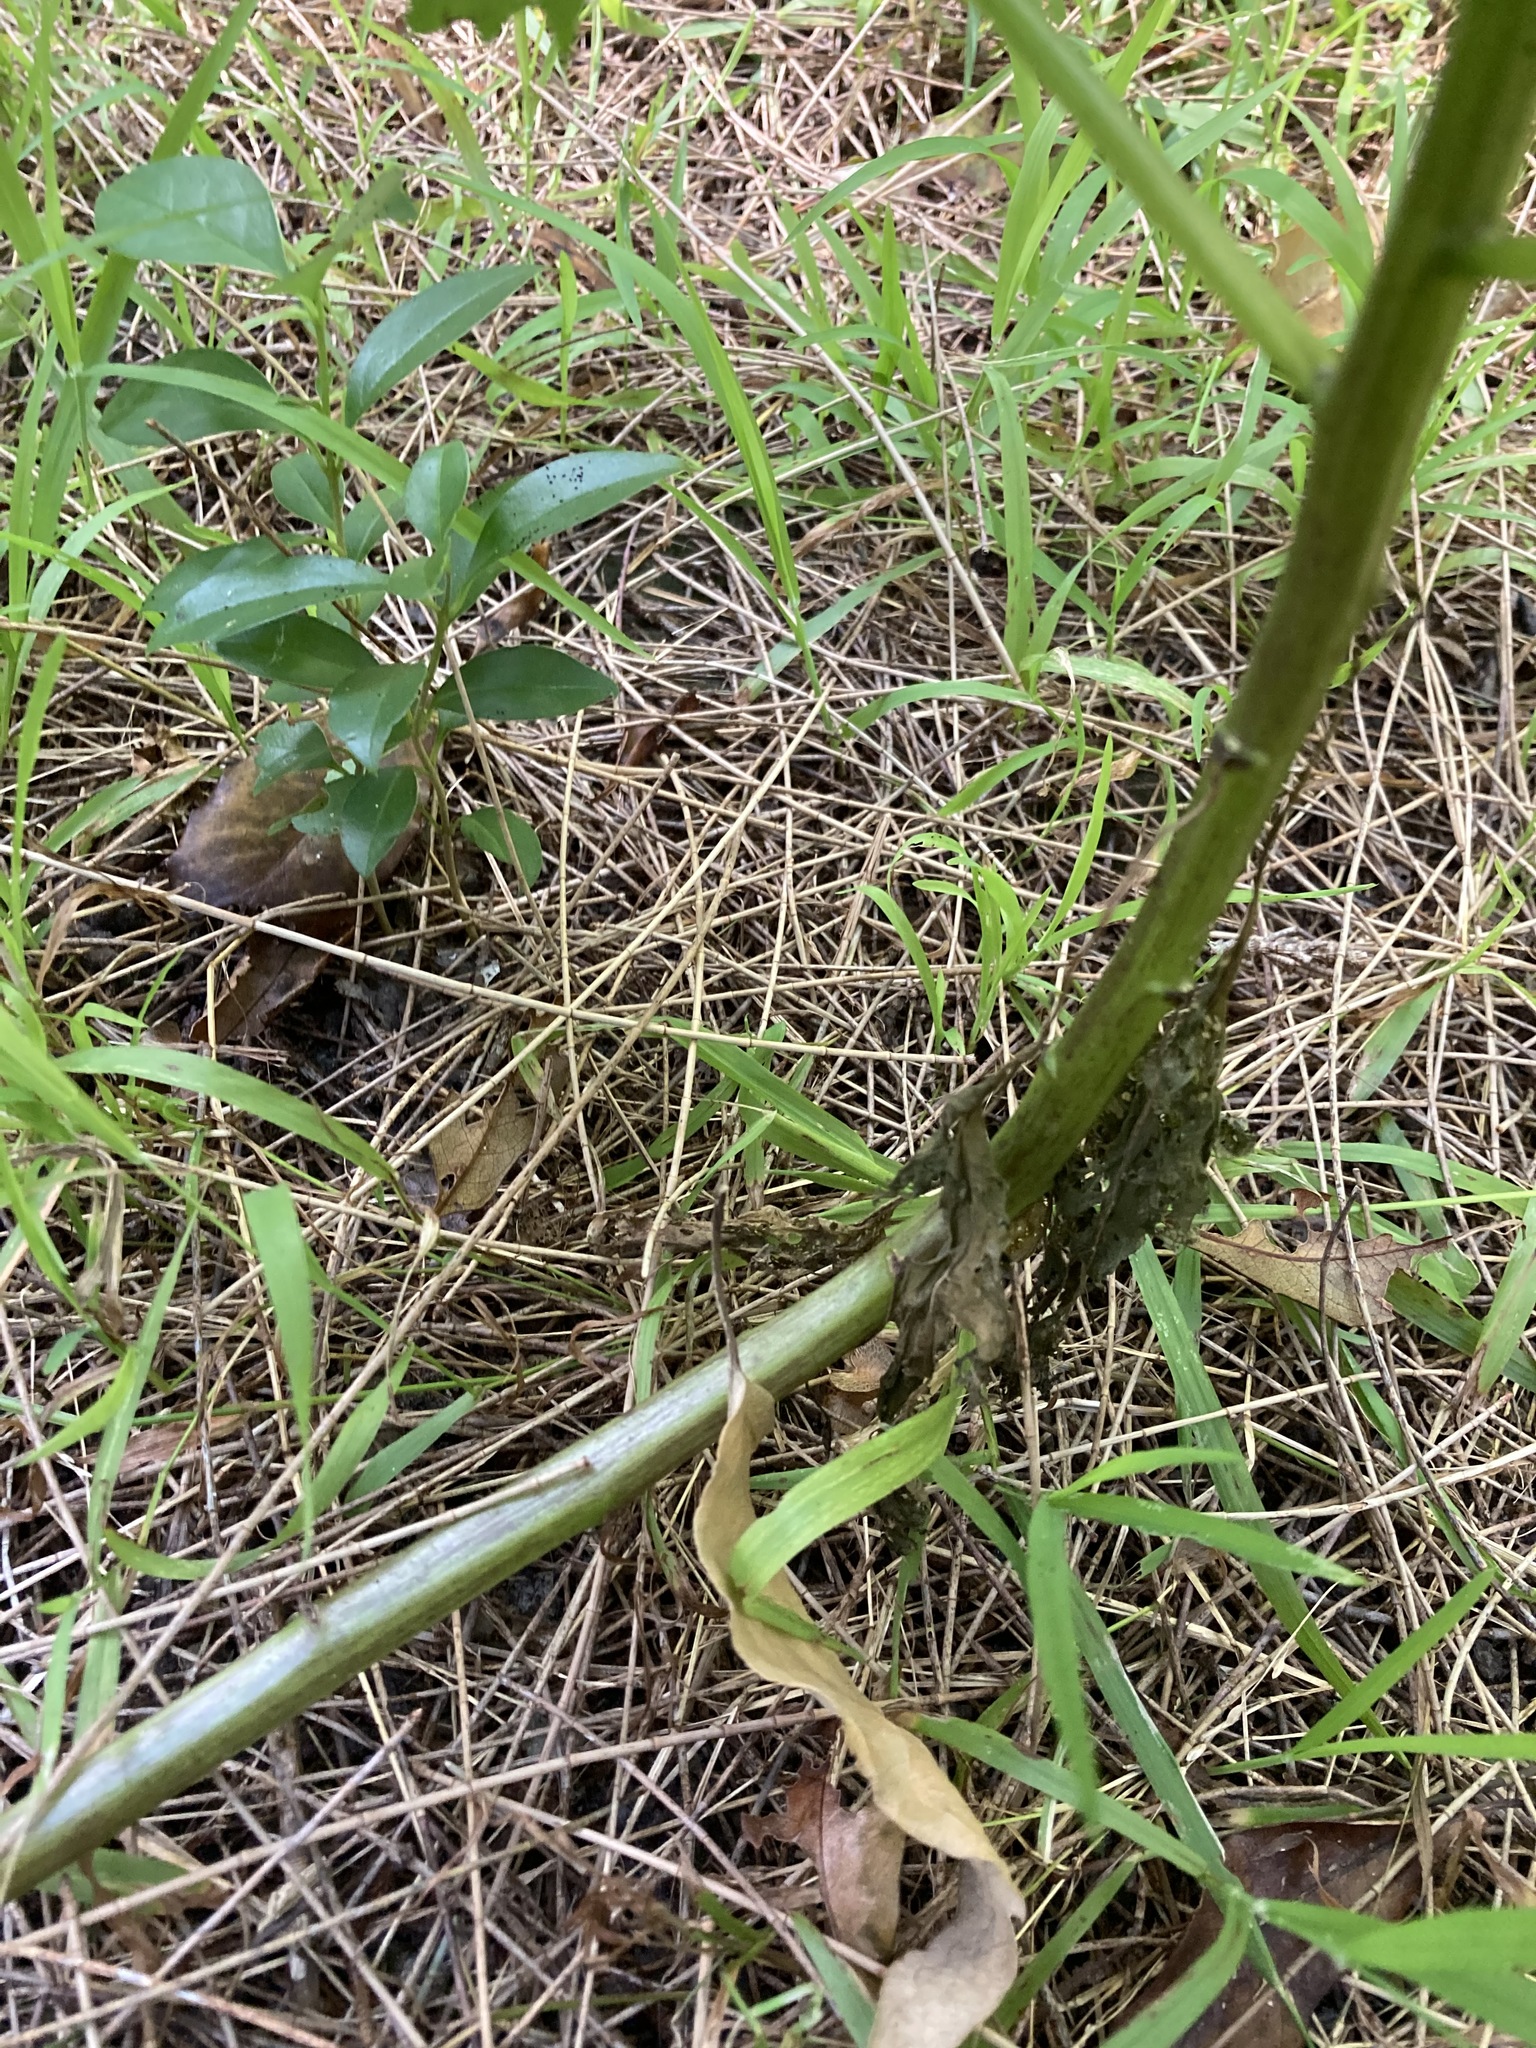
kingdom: Plantae
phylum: Tracheophyta
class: Magnoliopsida
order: Asterales
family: Asteraceae
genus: Erechtites
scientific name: Erechtites valerianifolius
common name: Tropical burnweed
